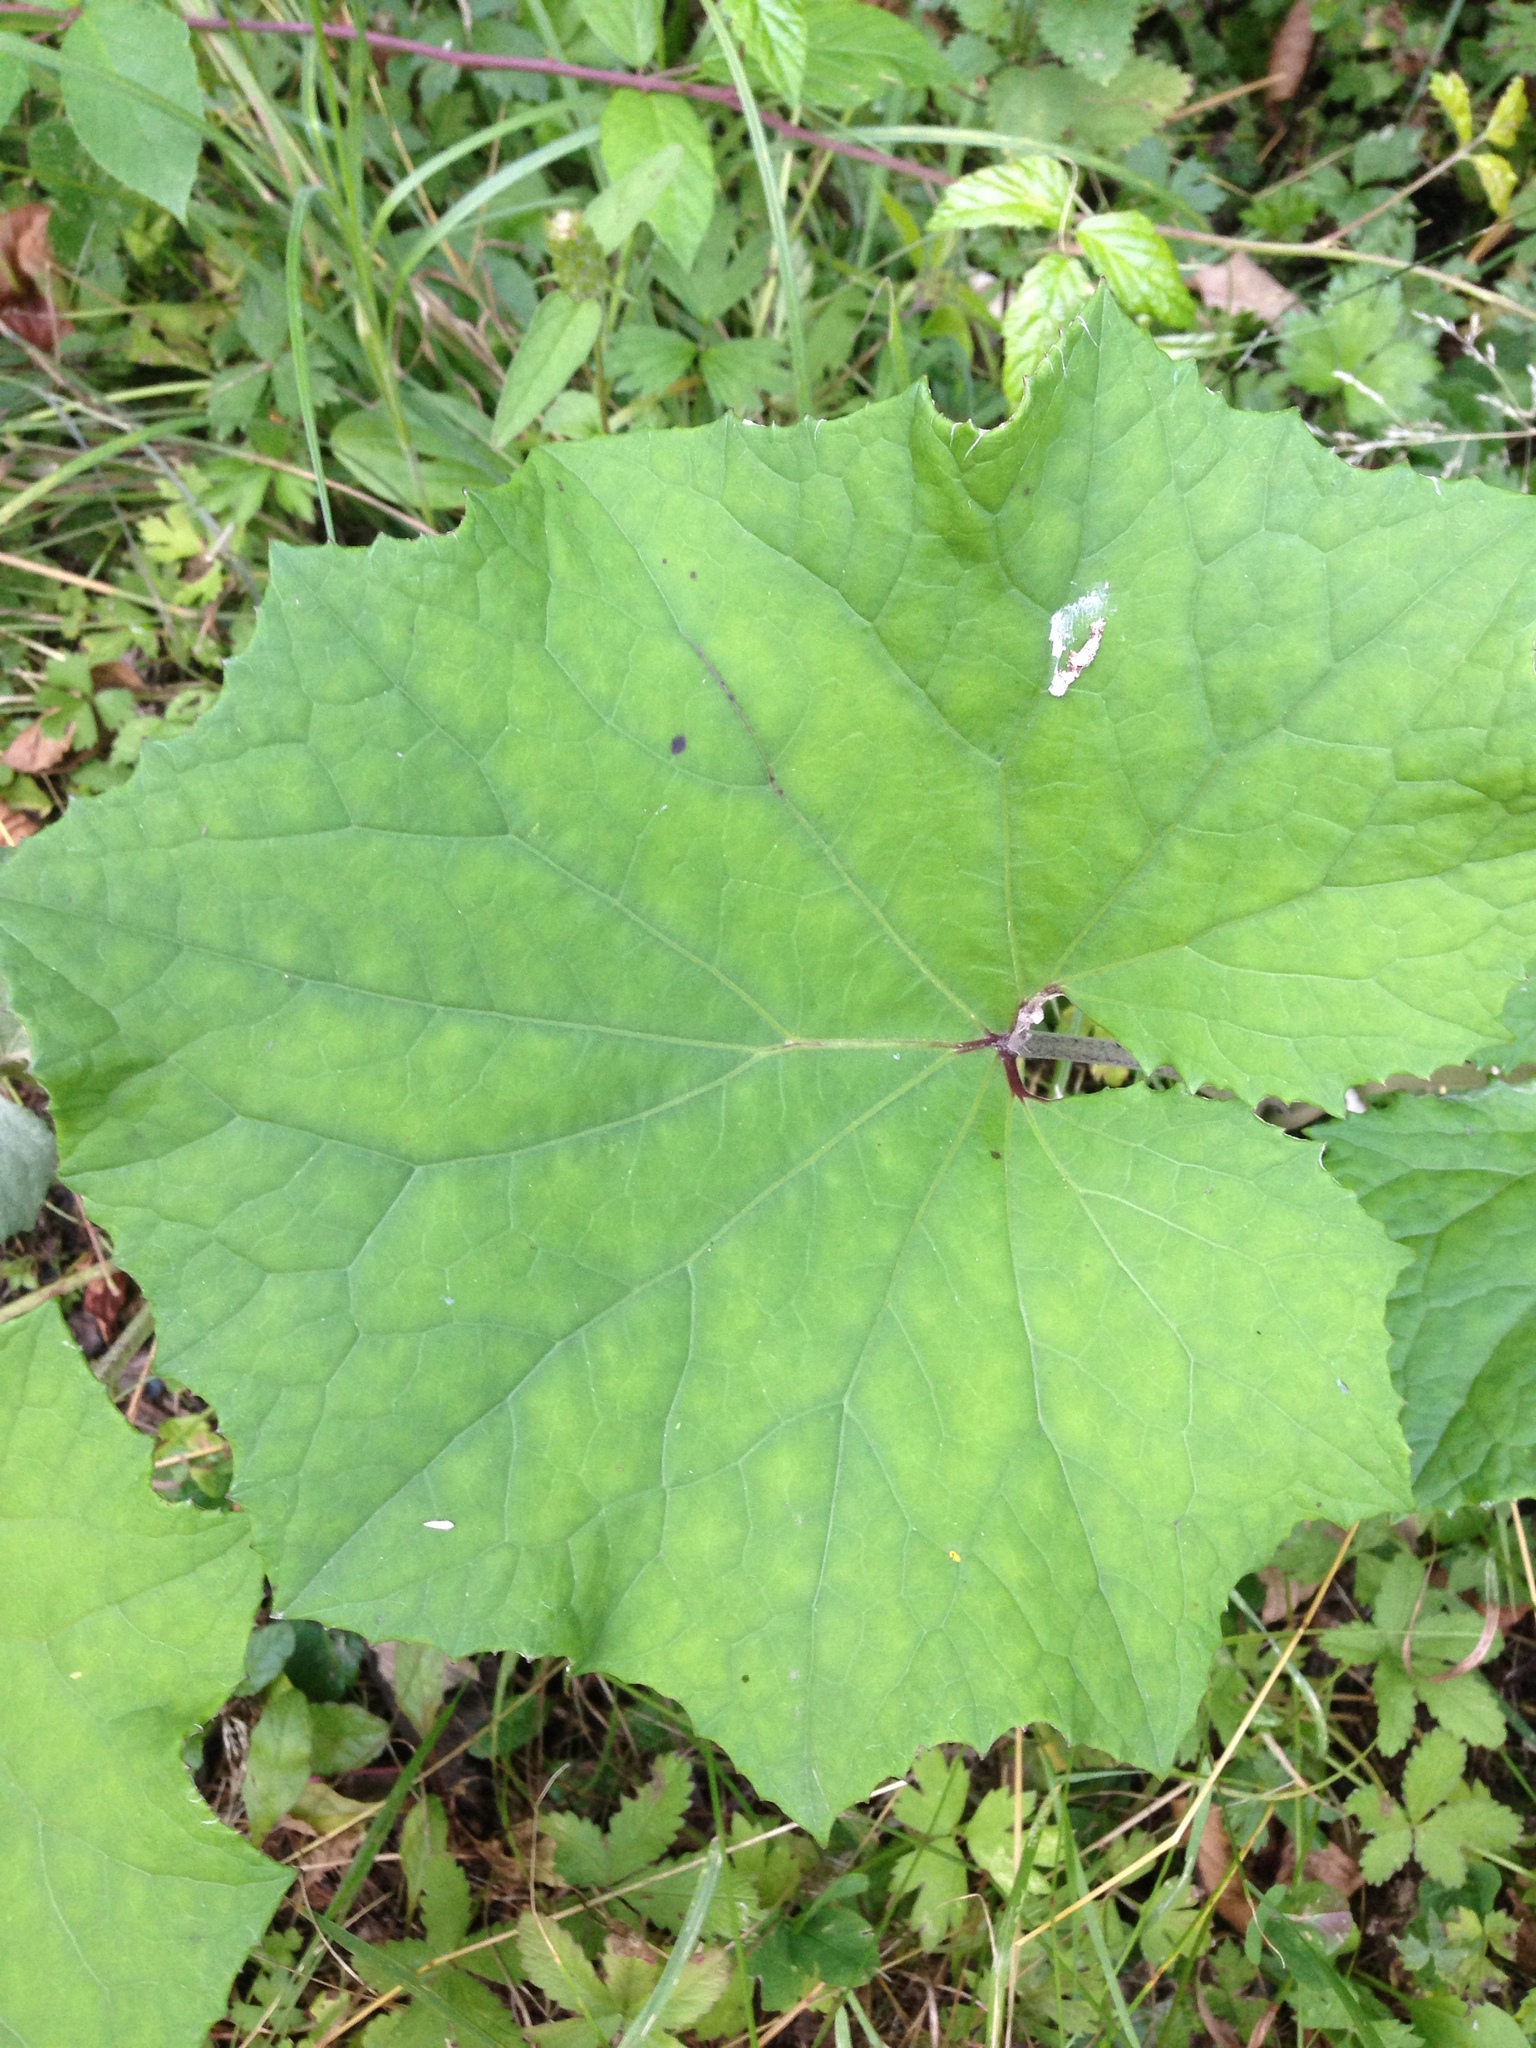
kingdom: Plantae
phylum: Tracheophyta
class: Magnoliopsida
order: Asterales
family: Asteraceae
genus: Tussilago
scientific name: Tussilago farfara
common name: Coltsfoot
